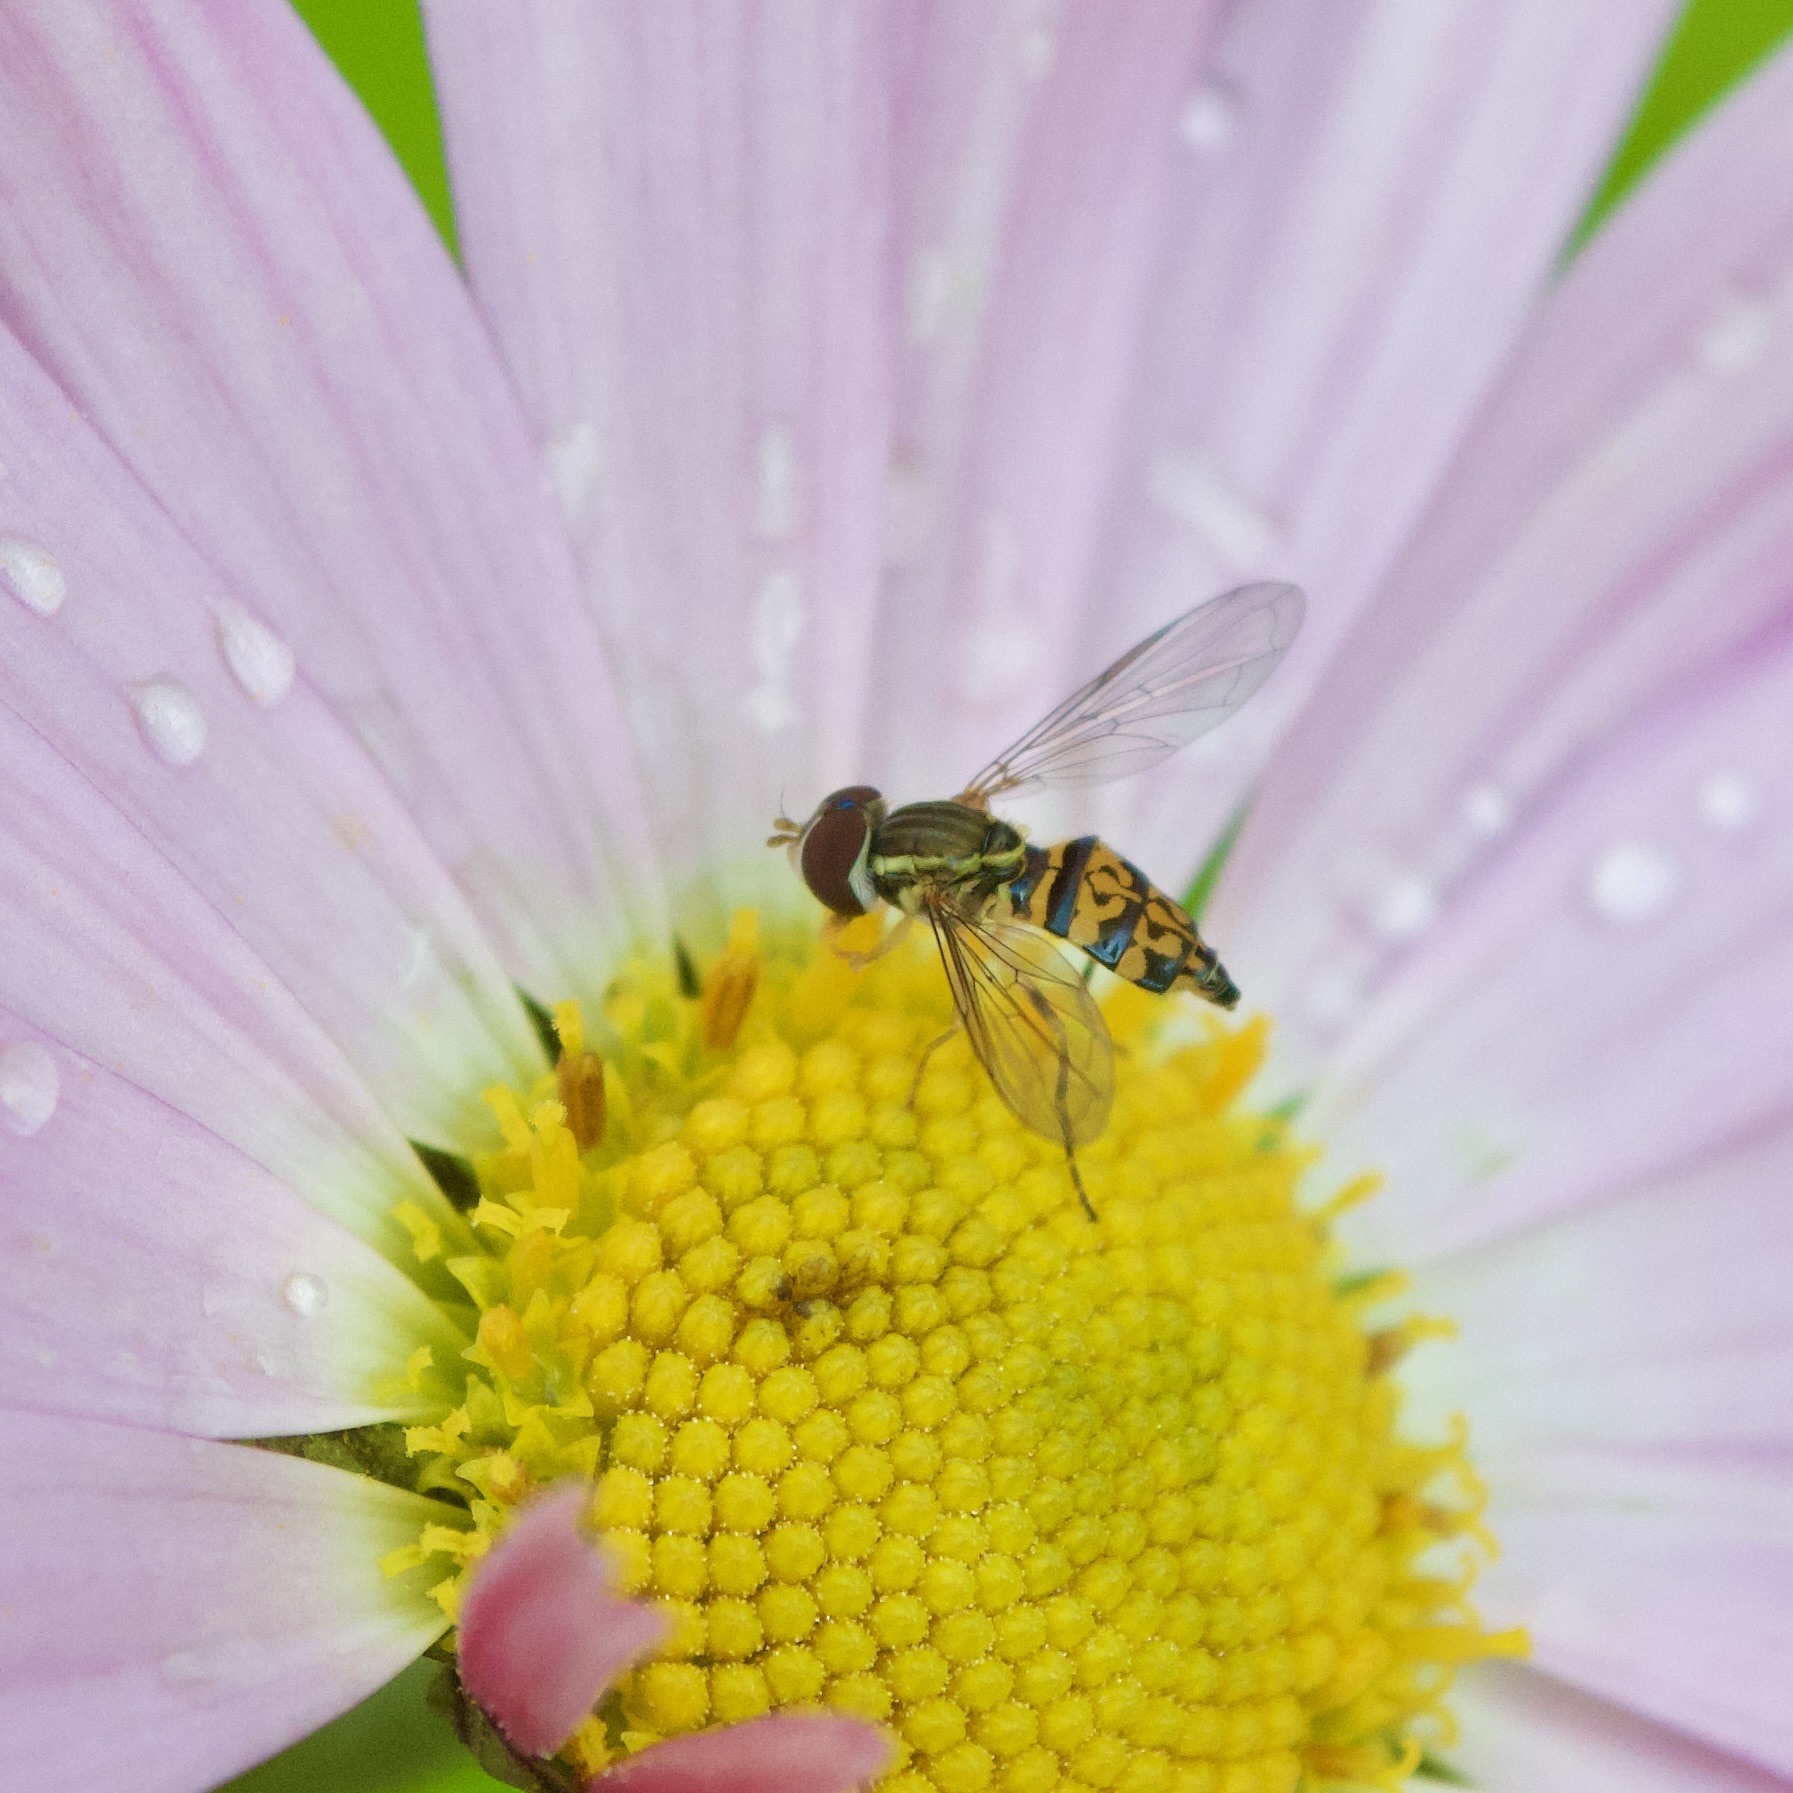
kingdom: Animalia
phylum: Arthropoda
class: Insecta
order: Diptera
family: Syrphidae
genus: Toxomerus
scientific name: Toxomerus geminatus
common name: Eastern calligrapher
